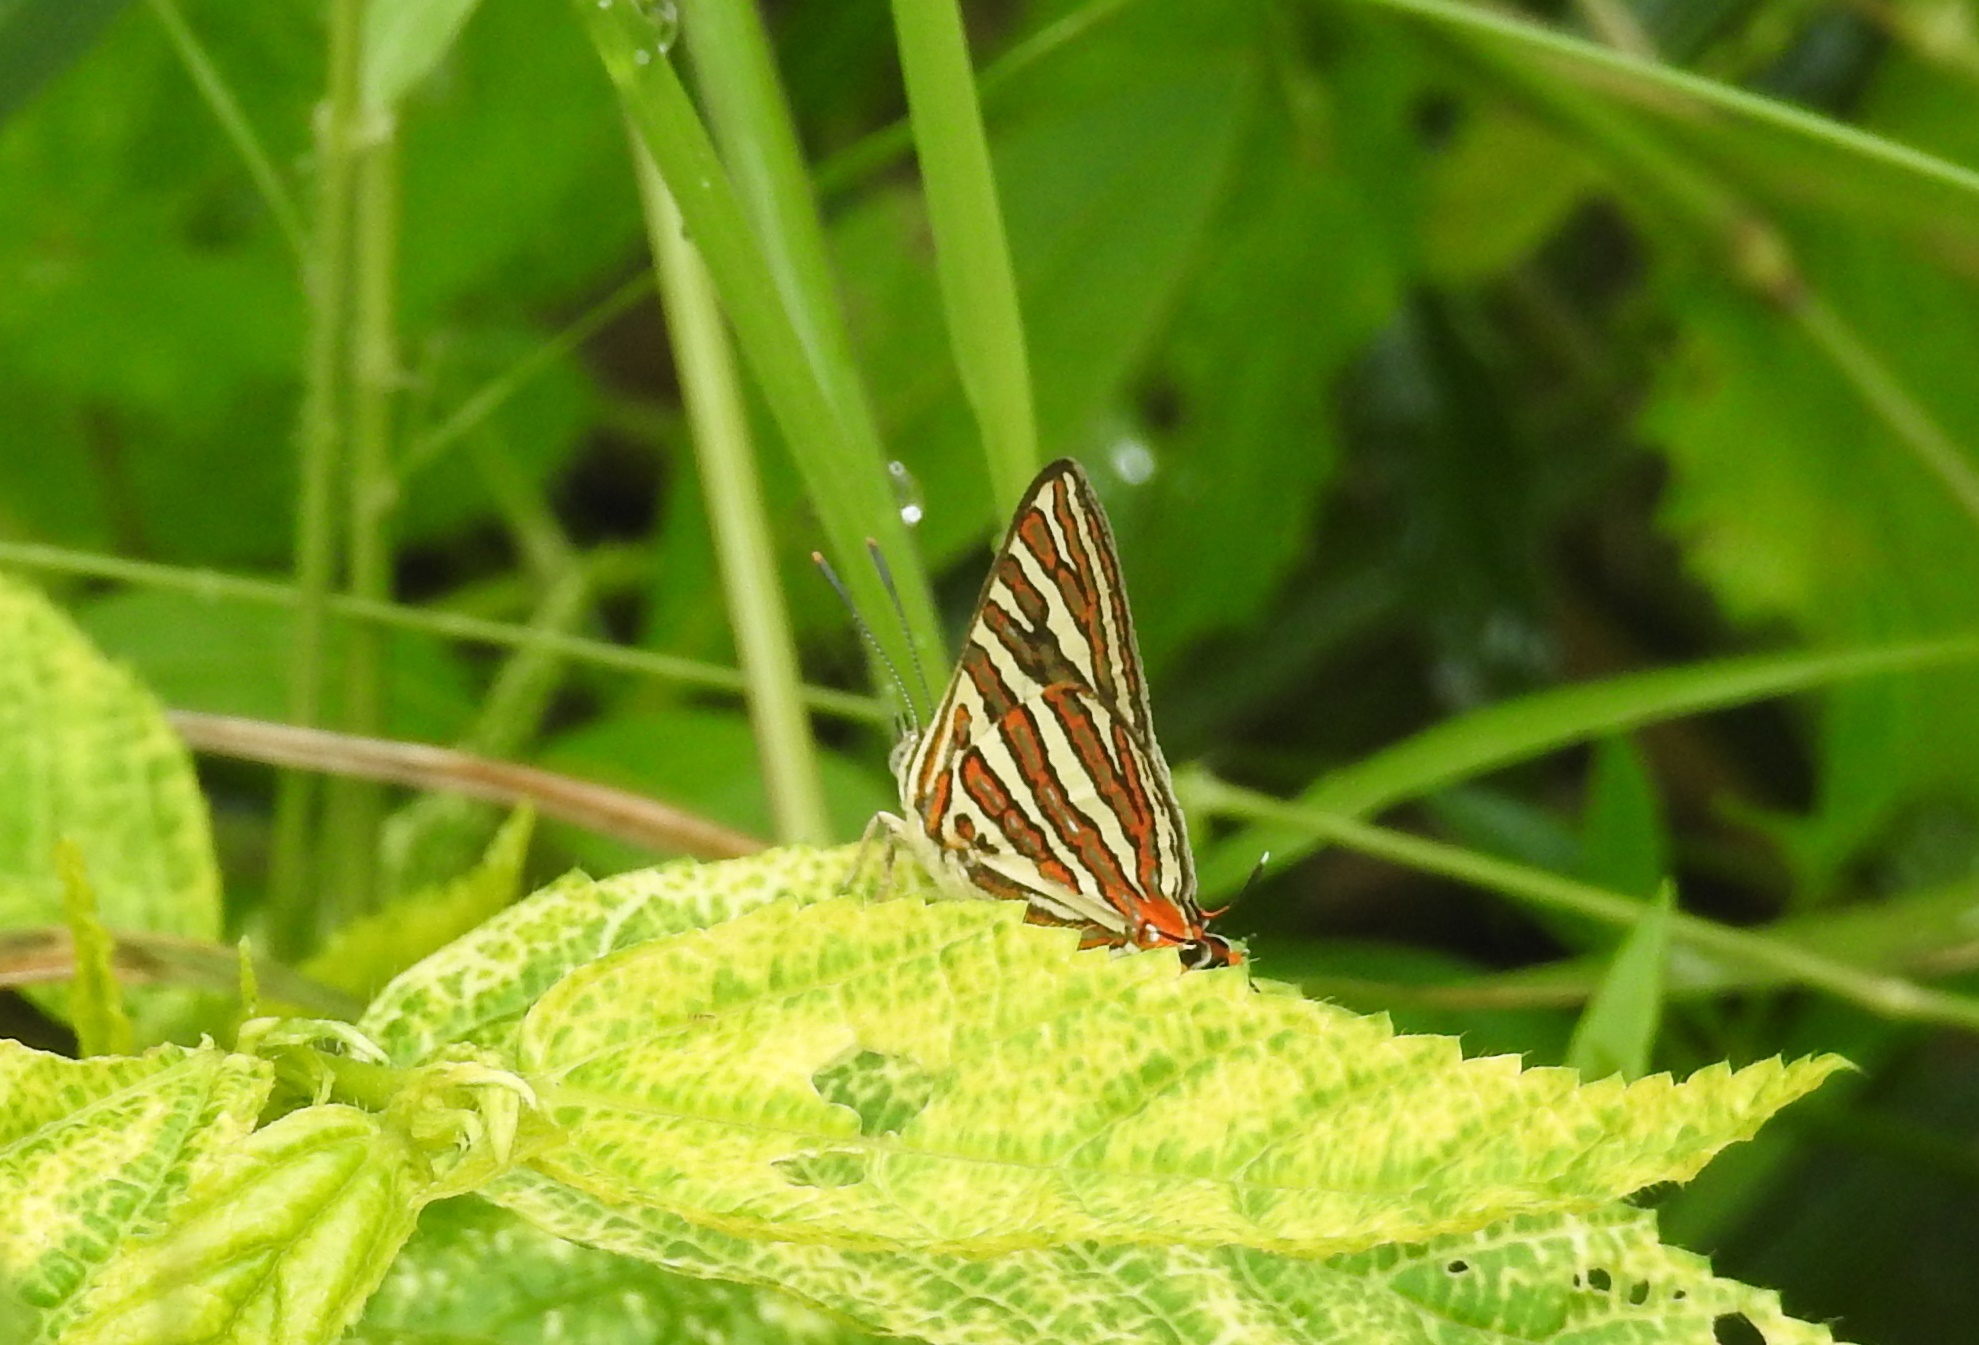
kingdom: Animalia
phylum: Arthropoda
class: Insecta
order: Lepidoptera
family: Lycaenidae
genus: Cigaritis
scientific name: Cigaritis vulcanus
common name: Common silverline
